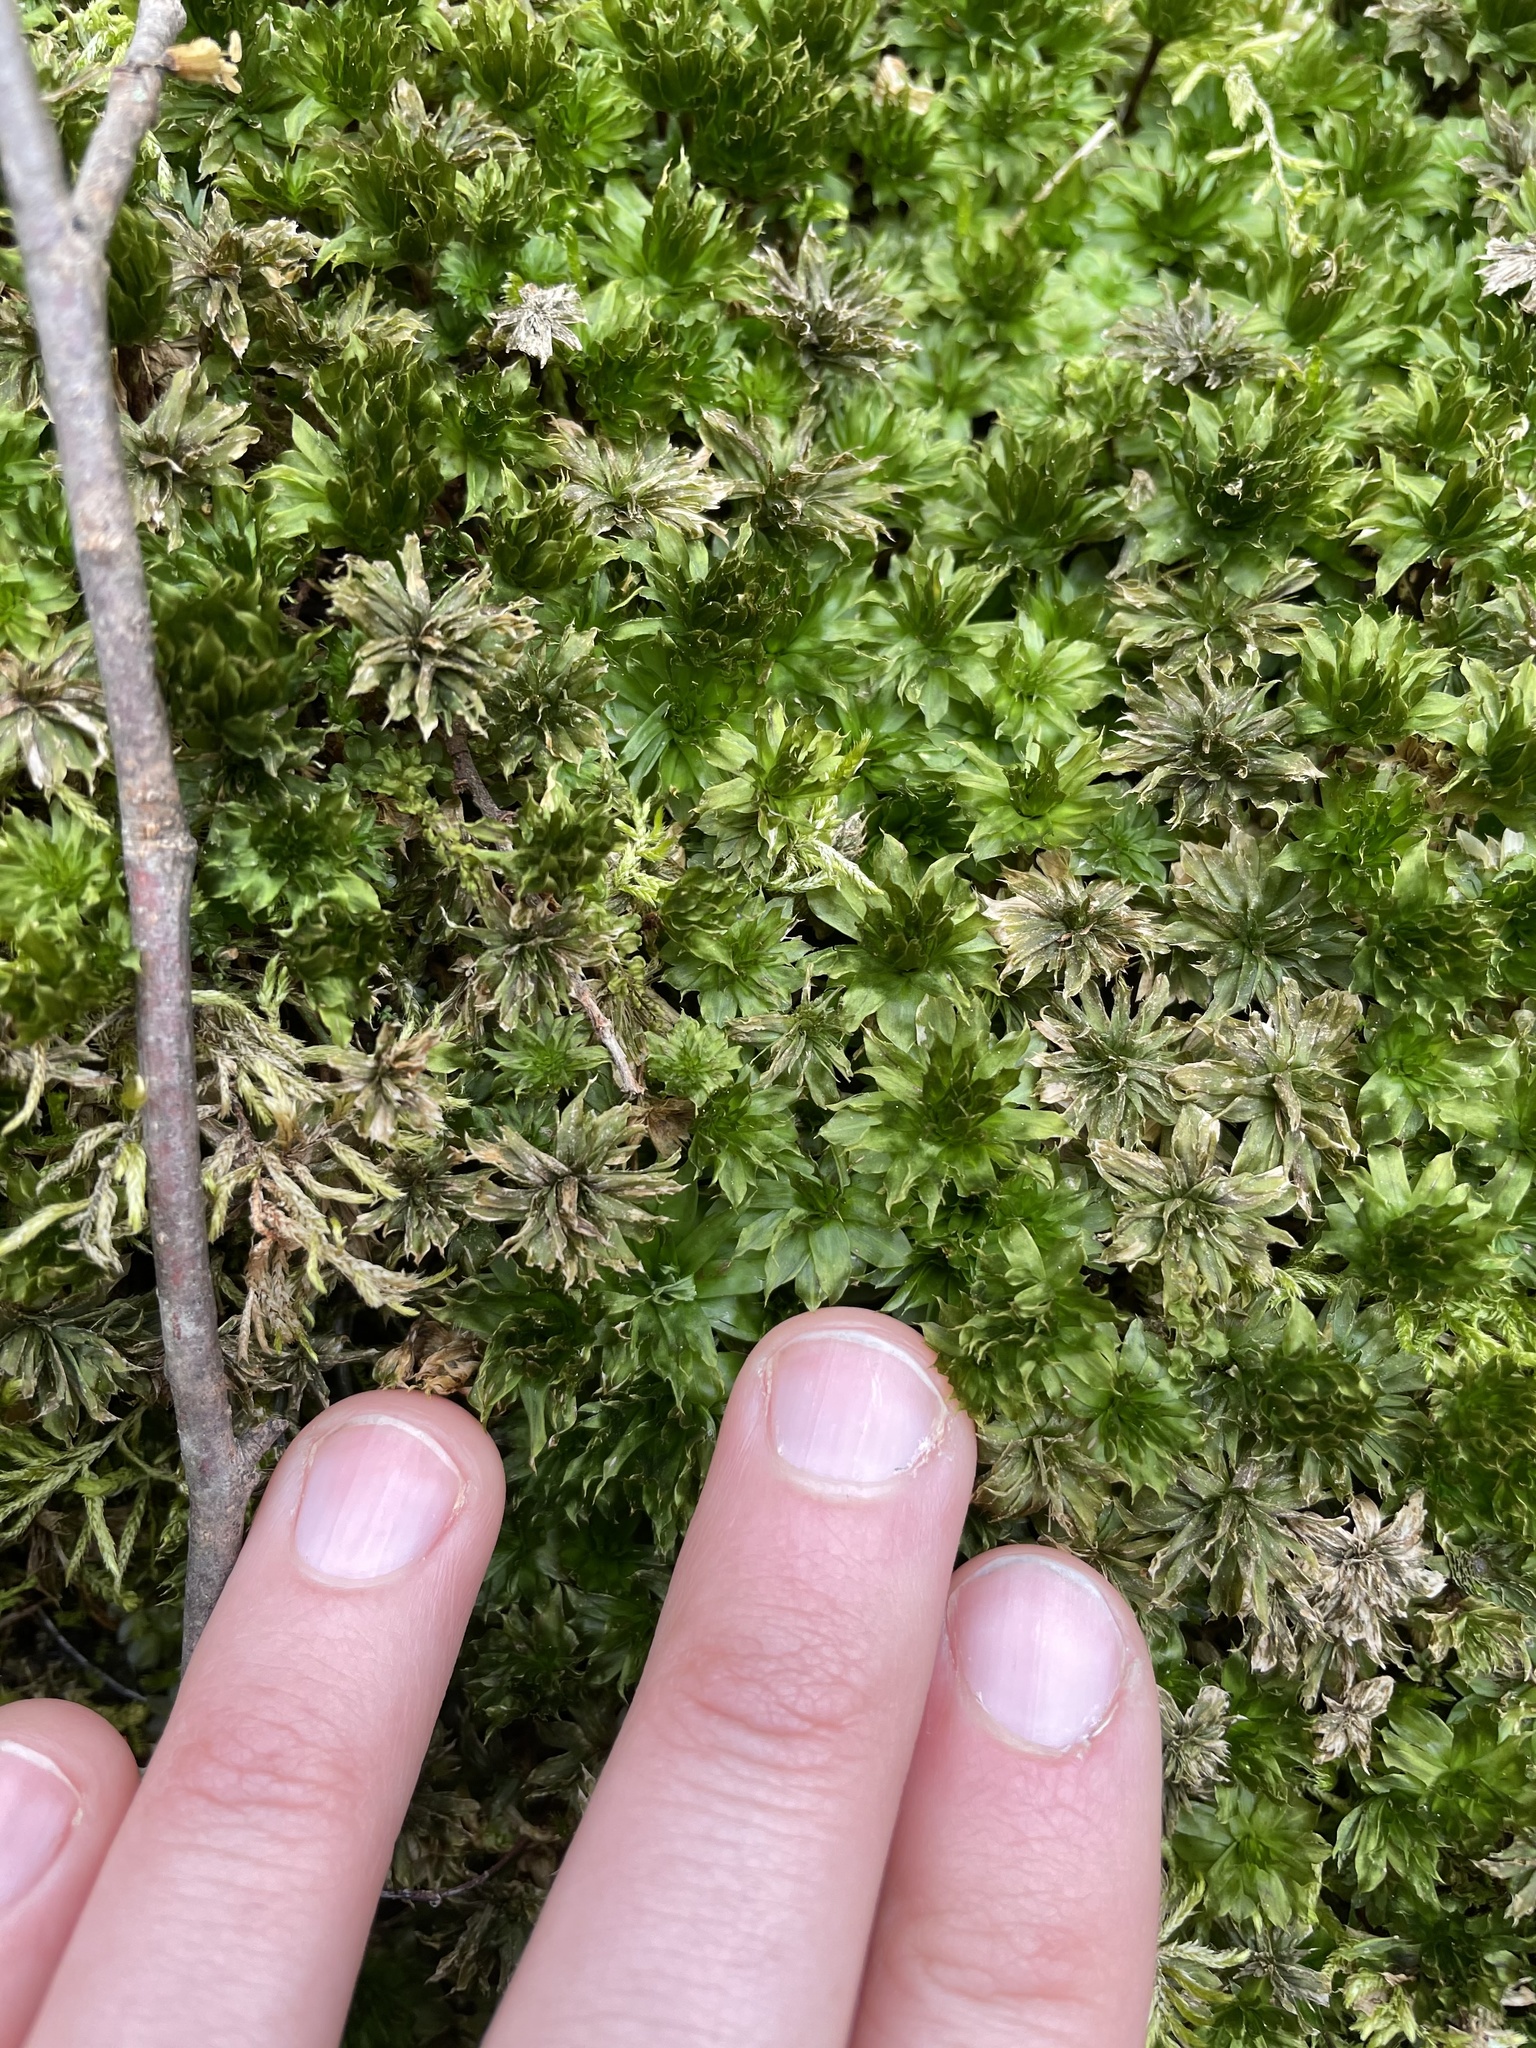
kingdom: Plantae
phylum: Bryophyta
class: Bryopsida
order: Bryales
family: Bryaceae
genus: Rhodobryum
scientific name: Rhodobryum ontariense
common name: Ontario rhodobryum moss
